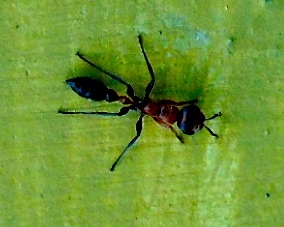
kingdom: Animalia
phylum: Arthropoda
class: Insecta
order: Hymenoptera
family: Formicidae
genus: Pseudomyrmex
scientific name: Pseudomyrmex gracilis
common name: Graceful twig ant
